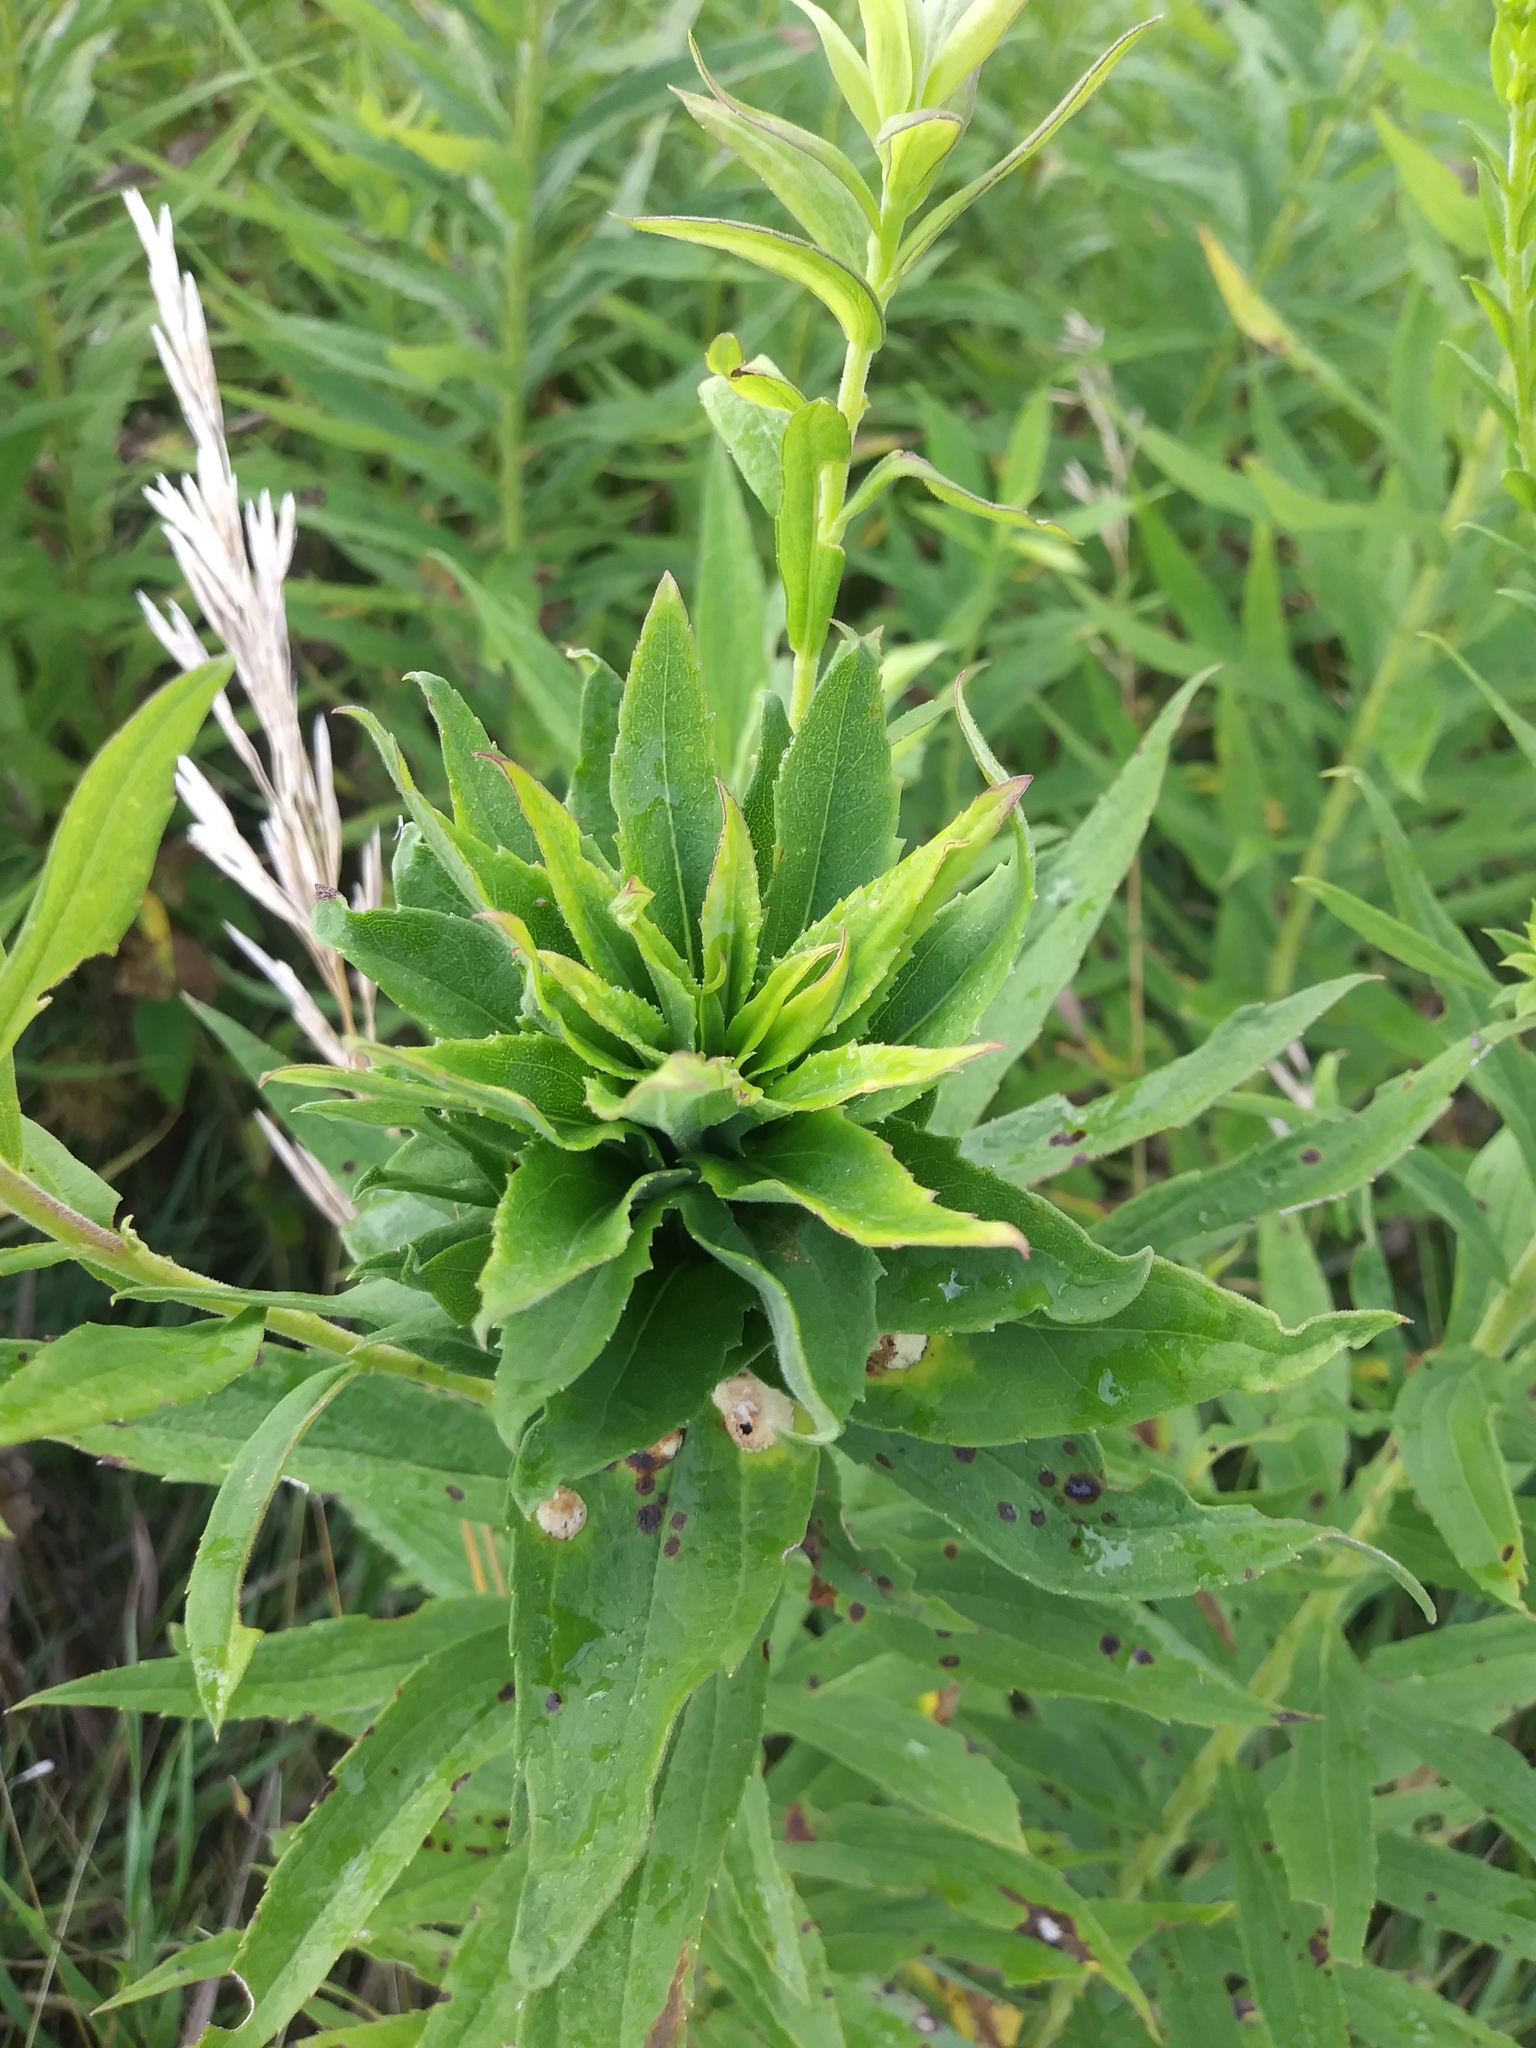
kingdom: Animalia
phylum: Arthropoda
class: Insecta
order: Diptera
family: Cecidomyiidae
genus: Rhopalomyia
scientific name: Rhopalomyia solidaginis
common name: Goldenrod bunch gall midge
